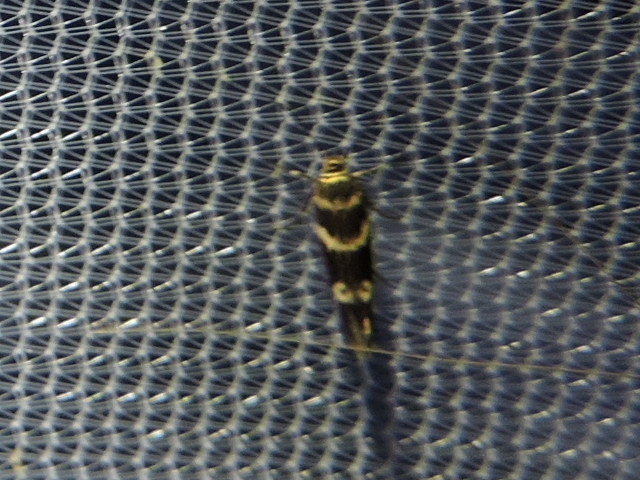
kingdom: Animalia
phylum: Arthropoda
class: Insecta
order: Lepidoptera
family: Scythrididae
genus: Scythris
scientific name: Scythris trivinctella
